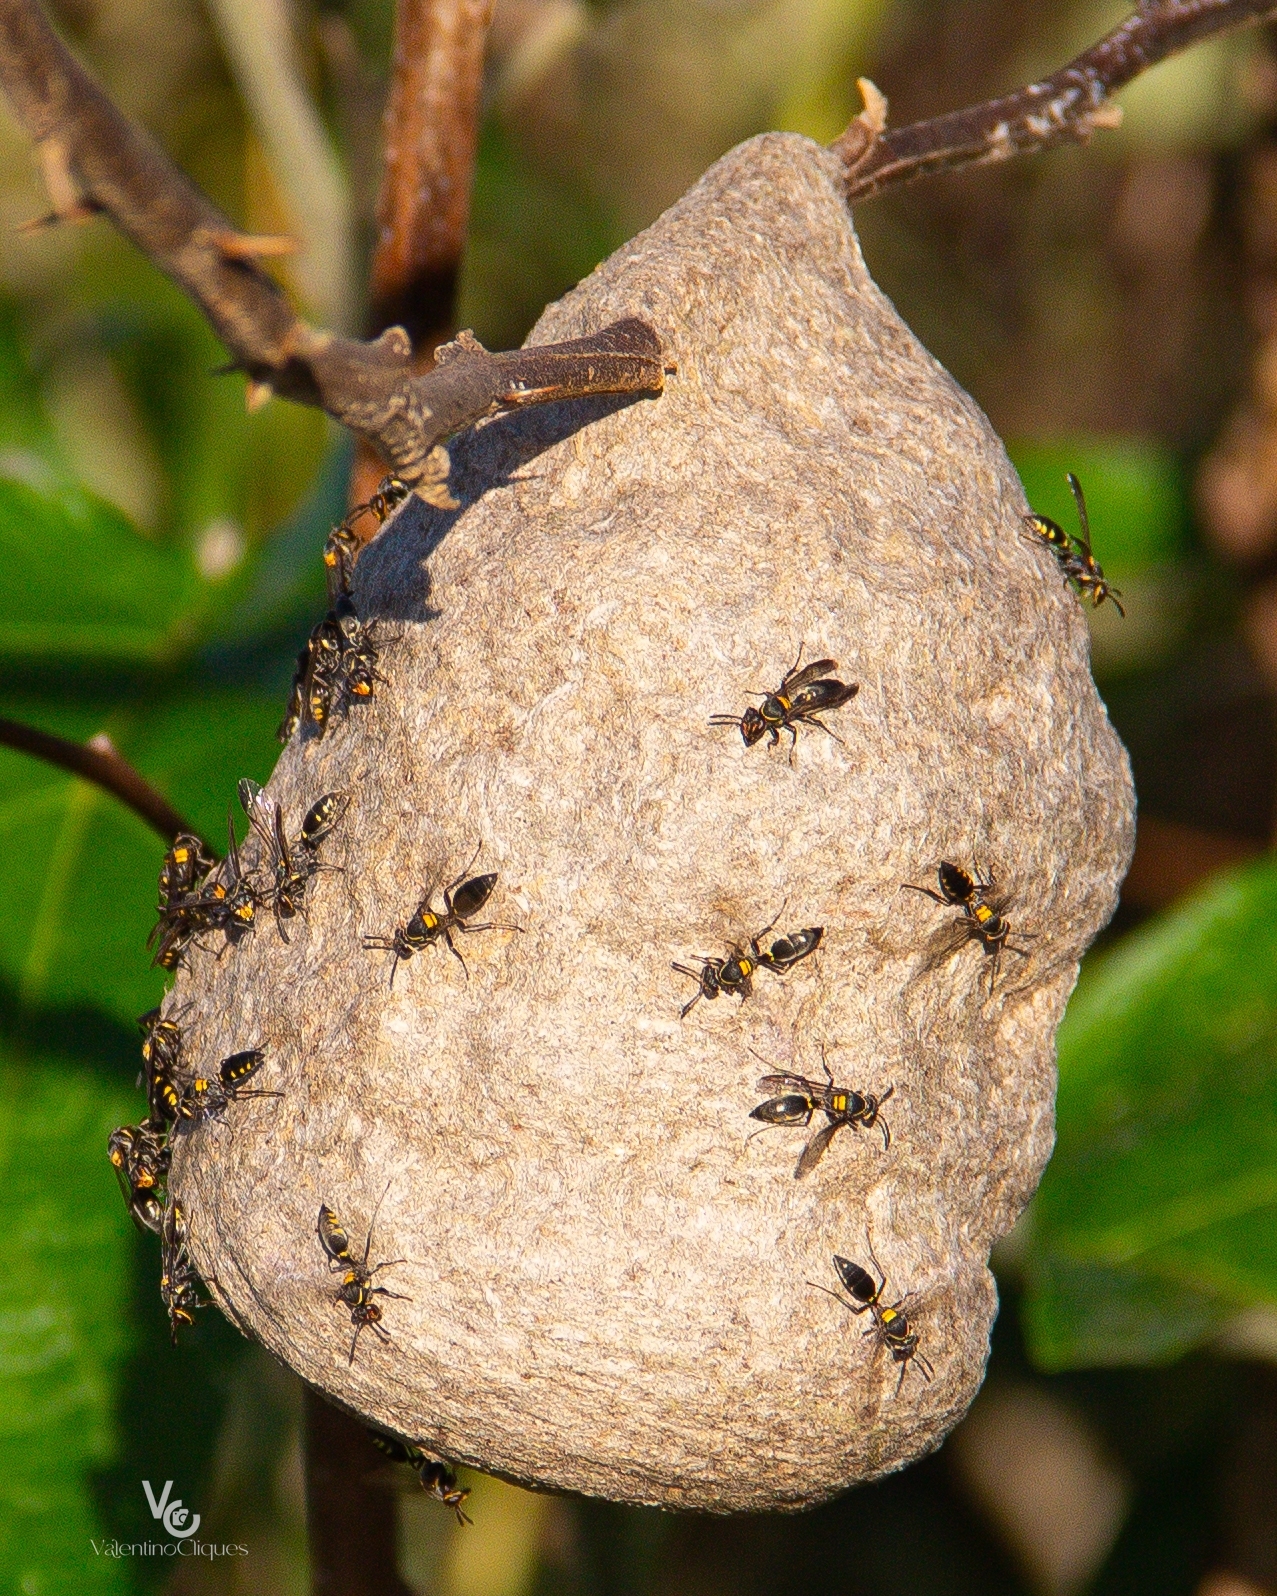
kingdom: Animalia
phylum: Arthropoda
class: Insecta
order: Hymenoptera
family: Eumenidae
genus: Polybia
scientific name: Polybia ruficeps
